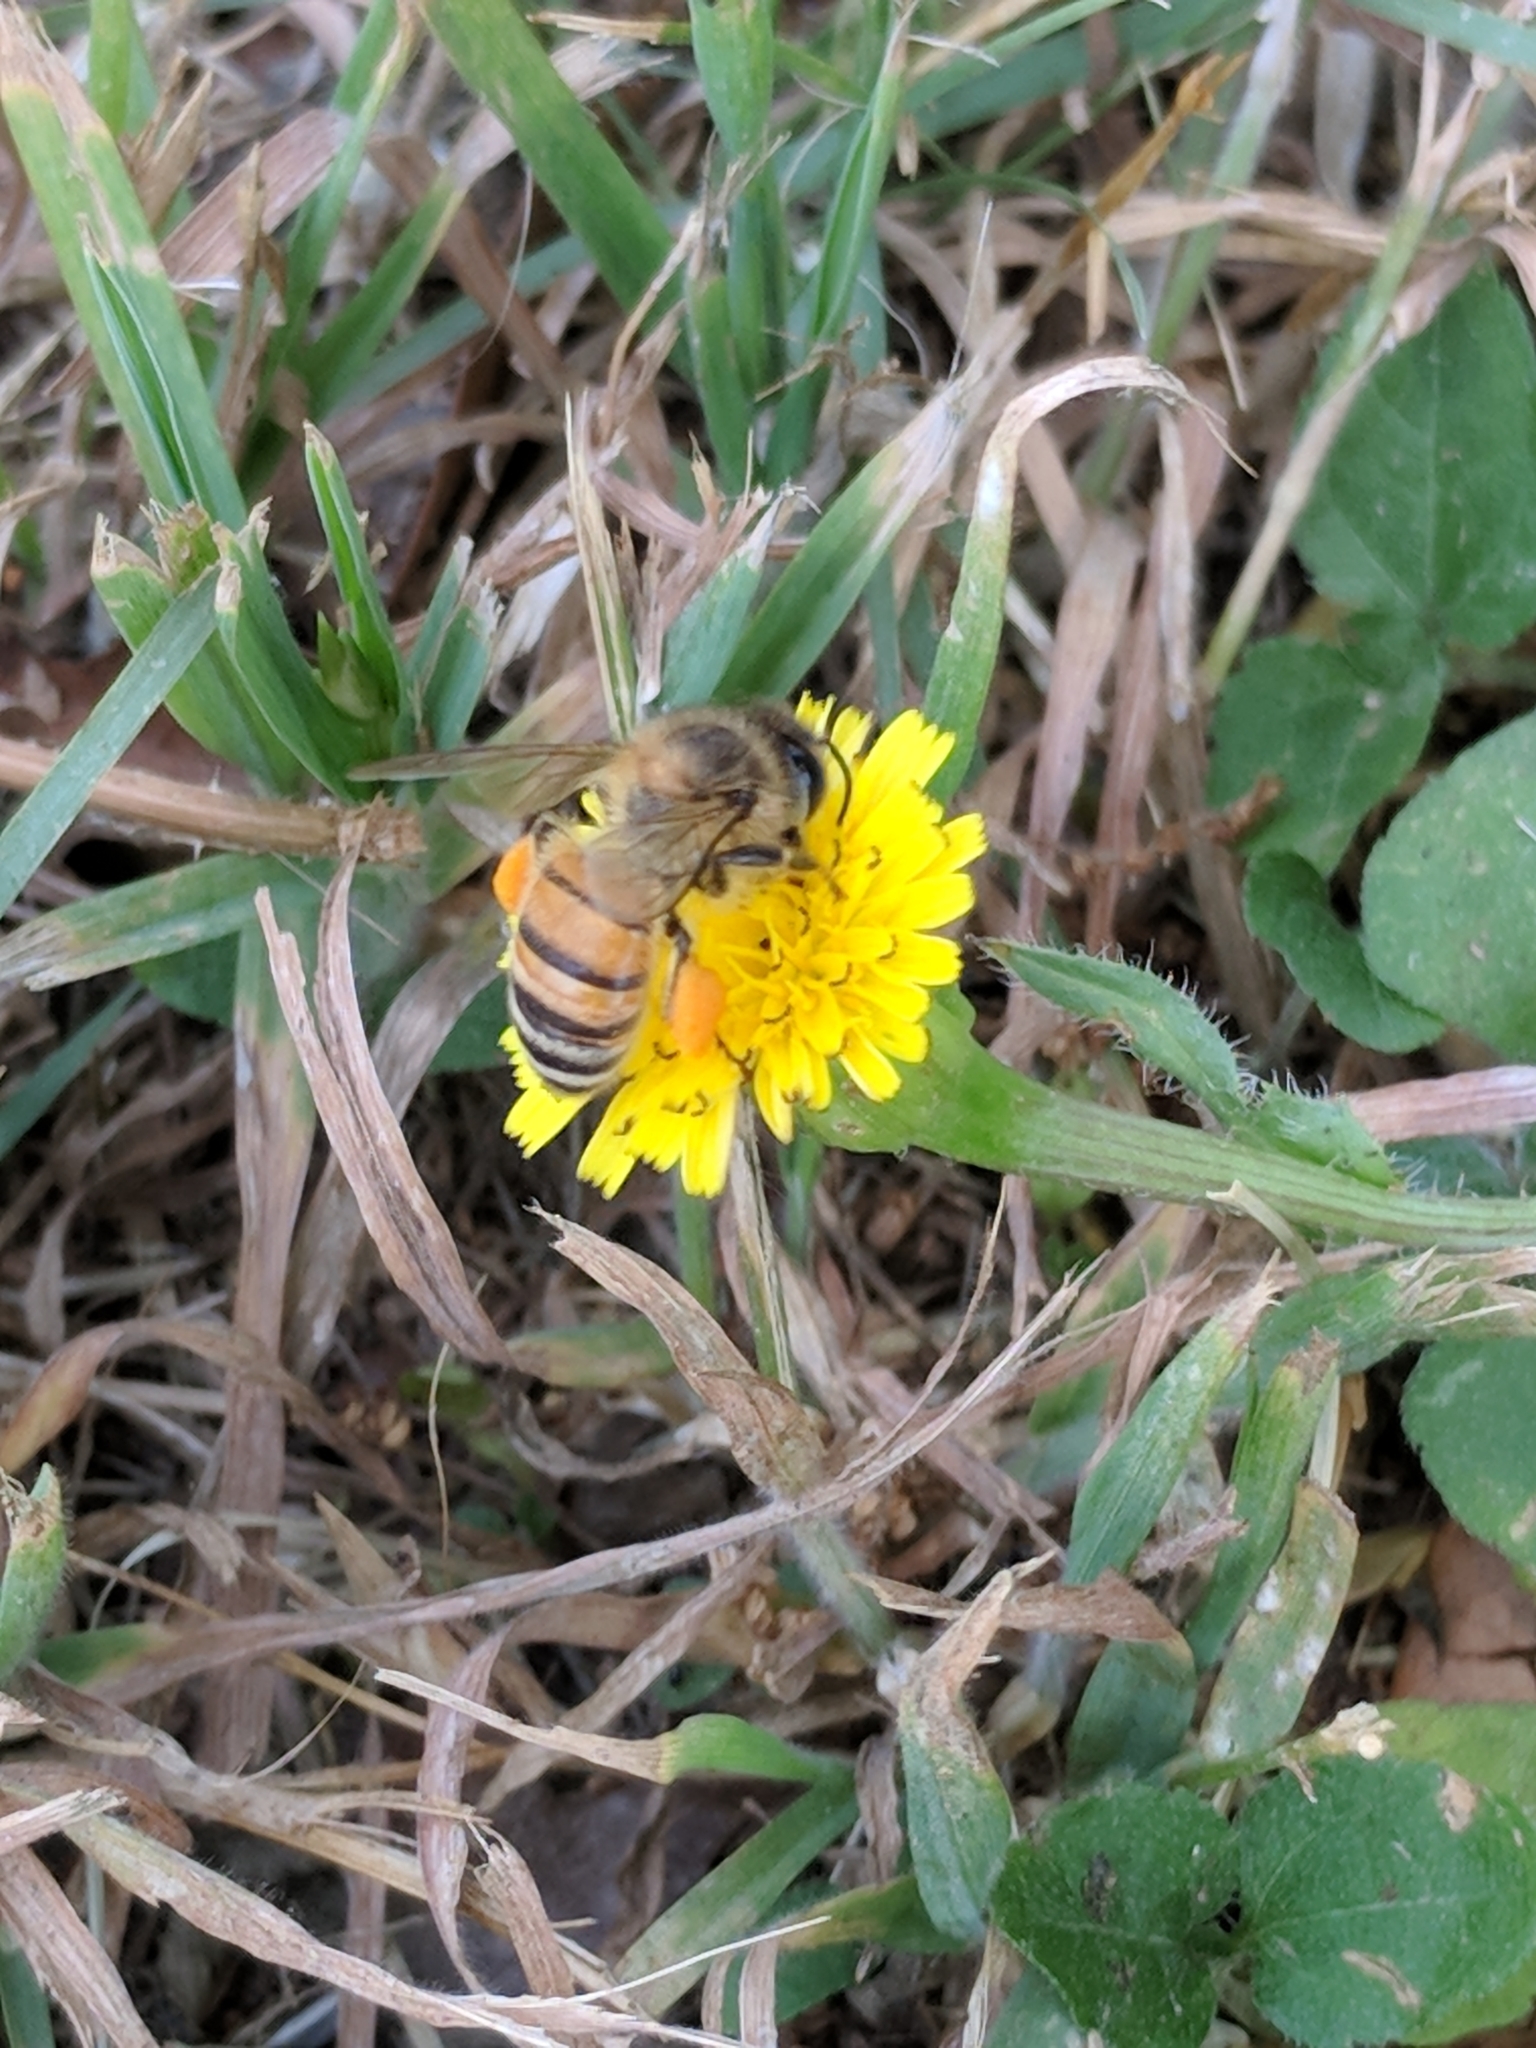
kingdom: Animalia
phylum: Arthropoda
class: Insecta
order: Hymenoptera
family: Apidae
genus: Apis
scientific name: Apis mellifera
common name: Honey bee
